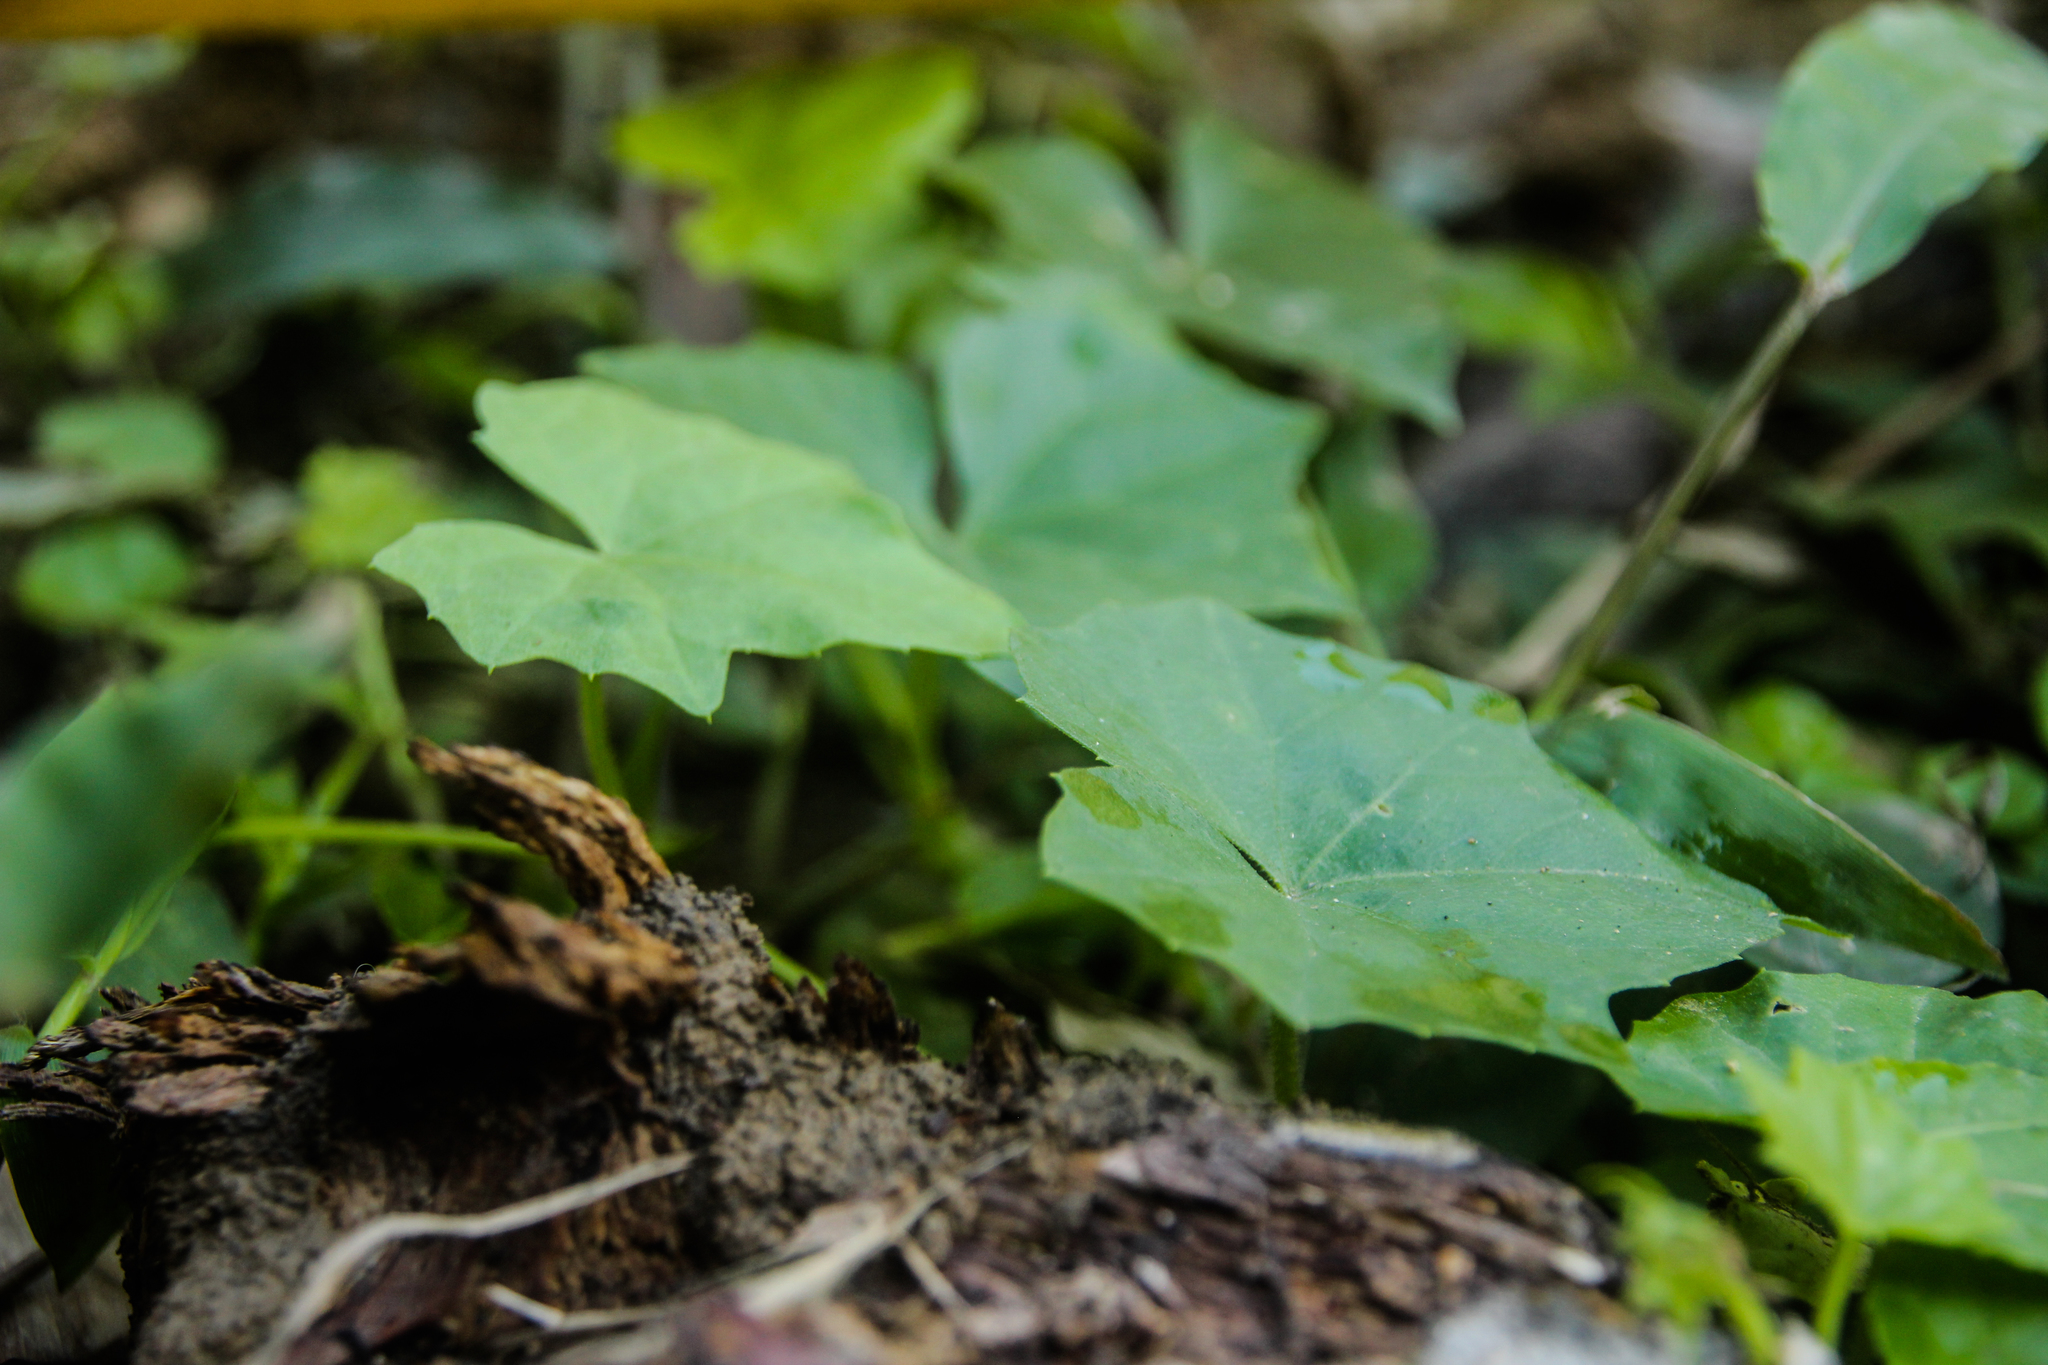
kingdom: Plantae
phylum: Tracheophyta
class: Magnoliopsida
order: Cucurbitales
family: Cucurbitaceae
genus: Melothria
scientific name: Melothria pendula
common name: Creeping-cucumber
